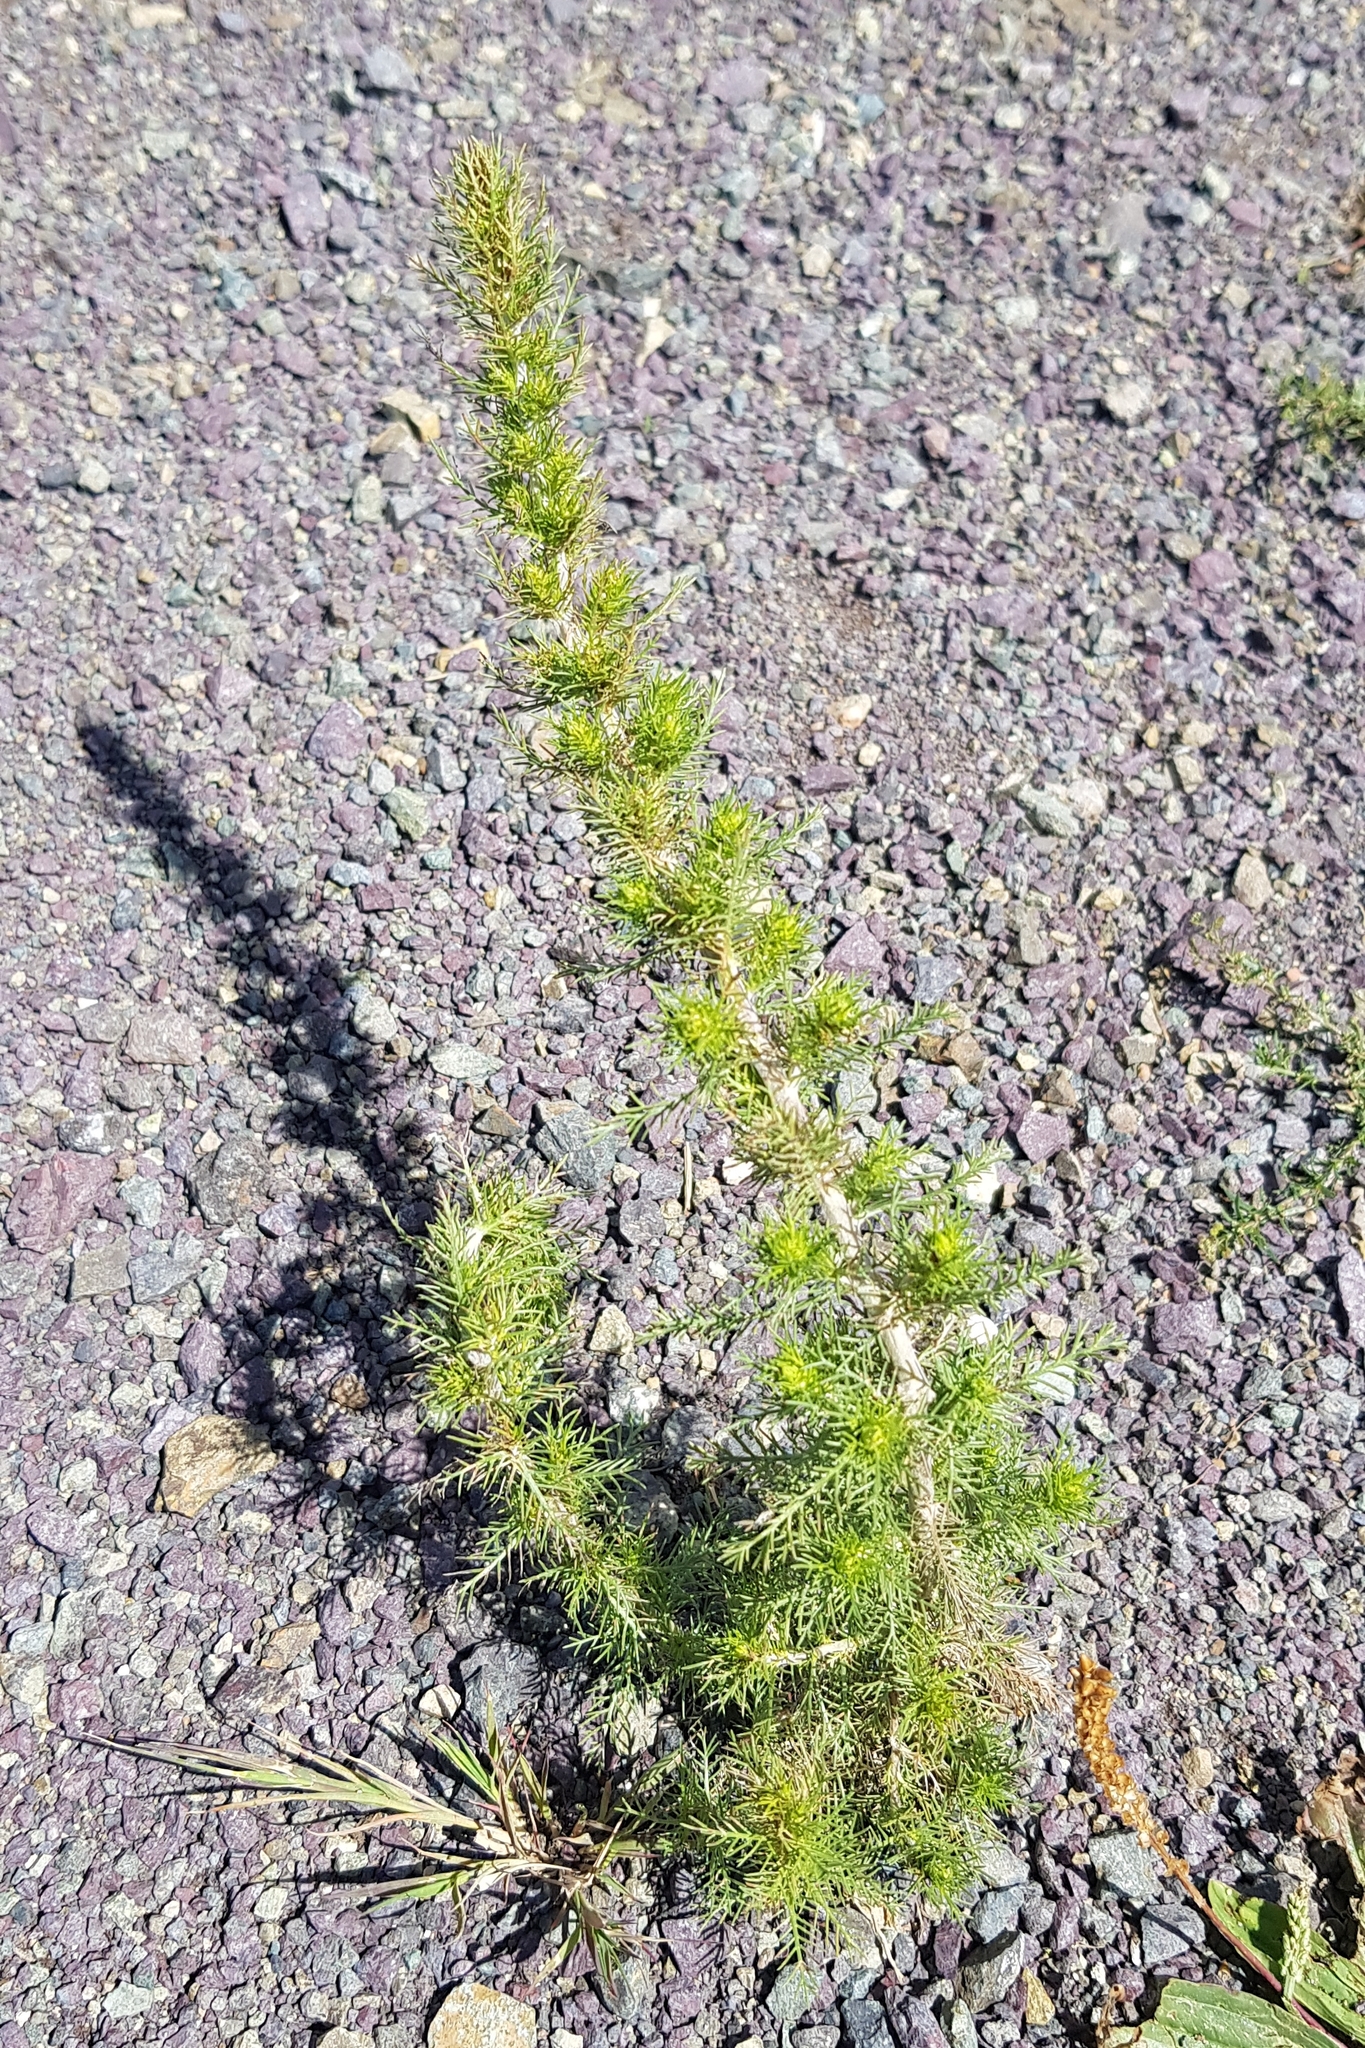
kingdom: Plantae
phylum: Tracheophyta
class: Magnoliopsida
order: Asterales
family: Asteraceae
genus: Neopallasia
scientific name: Neopallasia pectinata
